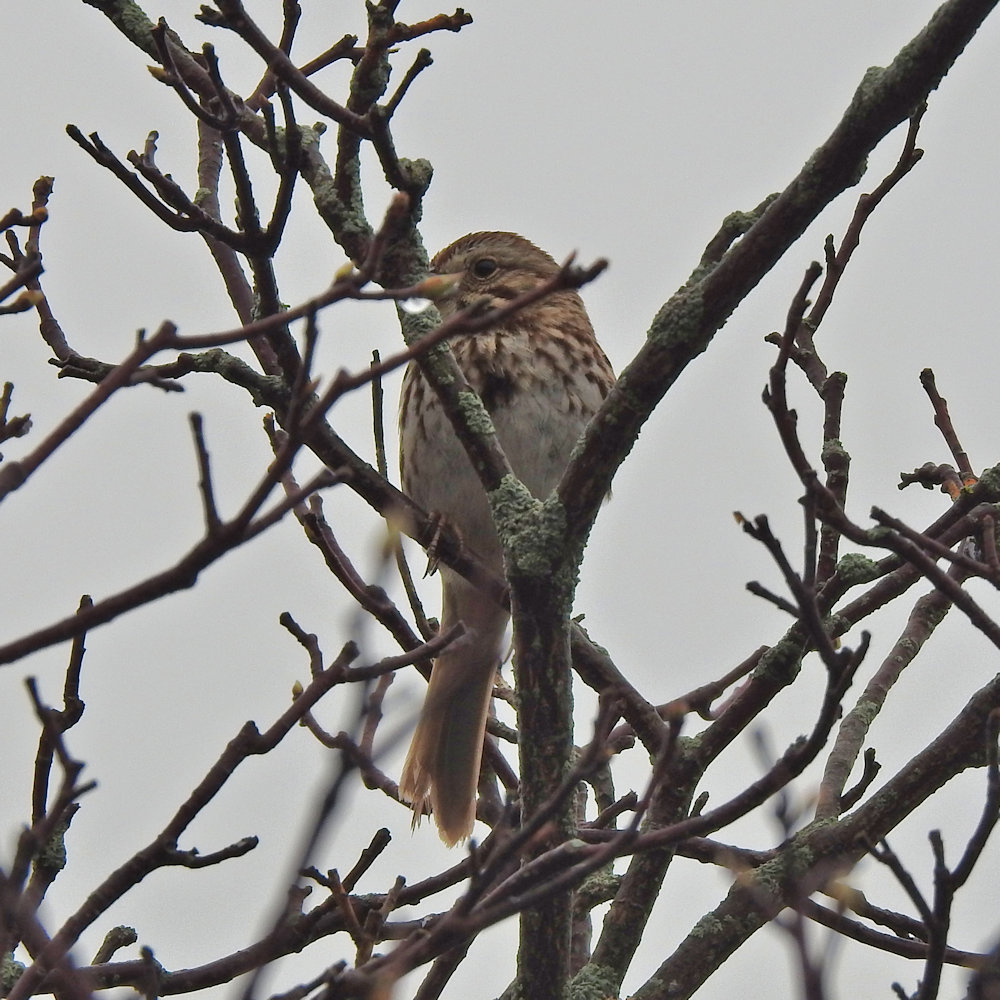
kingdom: Animalia
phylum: Chordata
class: Aves
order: Passeriformes
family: Passerellidae
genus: Melospiza
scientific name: Melospiza melodia
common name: Song sparrow
